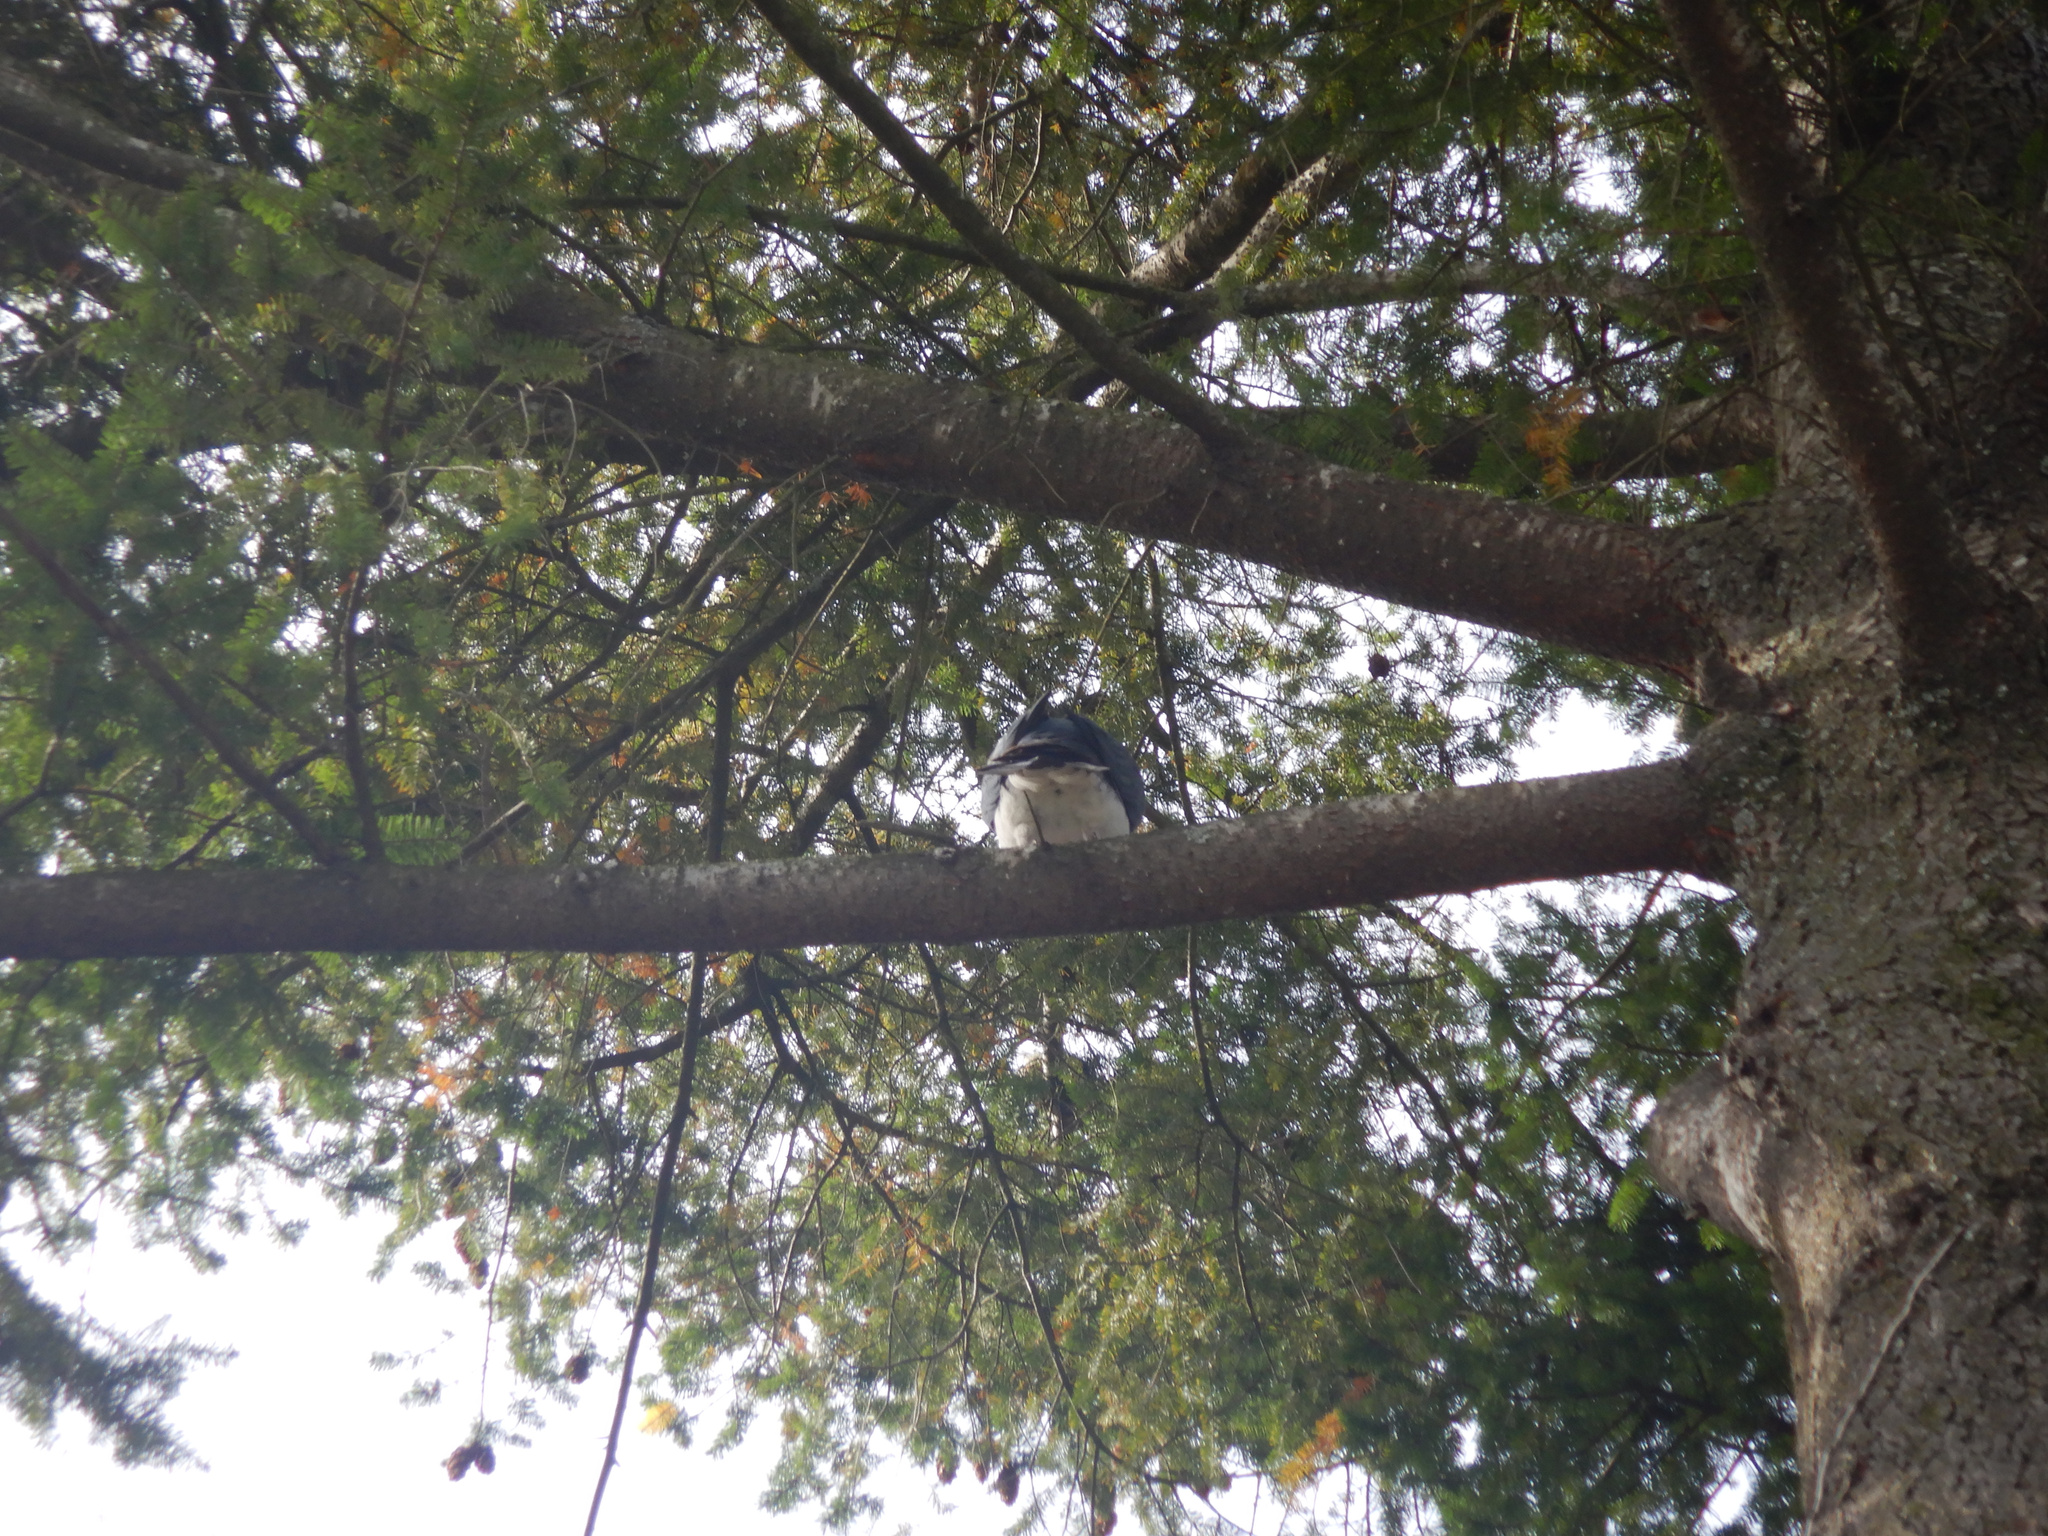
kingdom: Animalia
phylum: Chordata
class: Aves
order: Columbiformes
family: Columbidae
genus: Hemiphaga
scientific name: Hemiphaga novaeseelandiae
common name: New zealand pigeon
